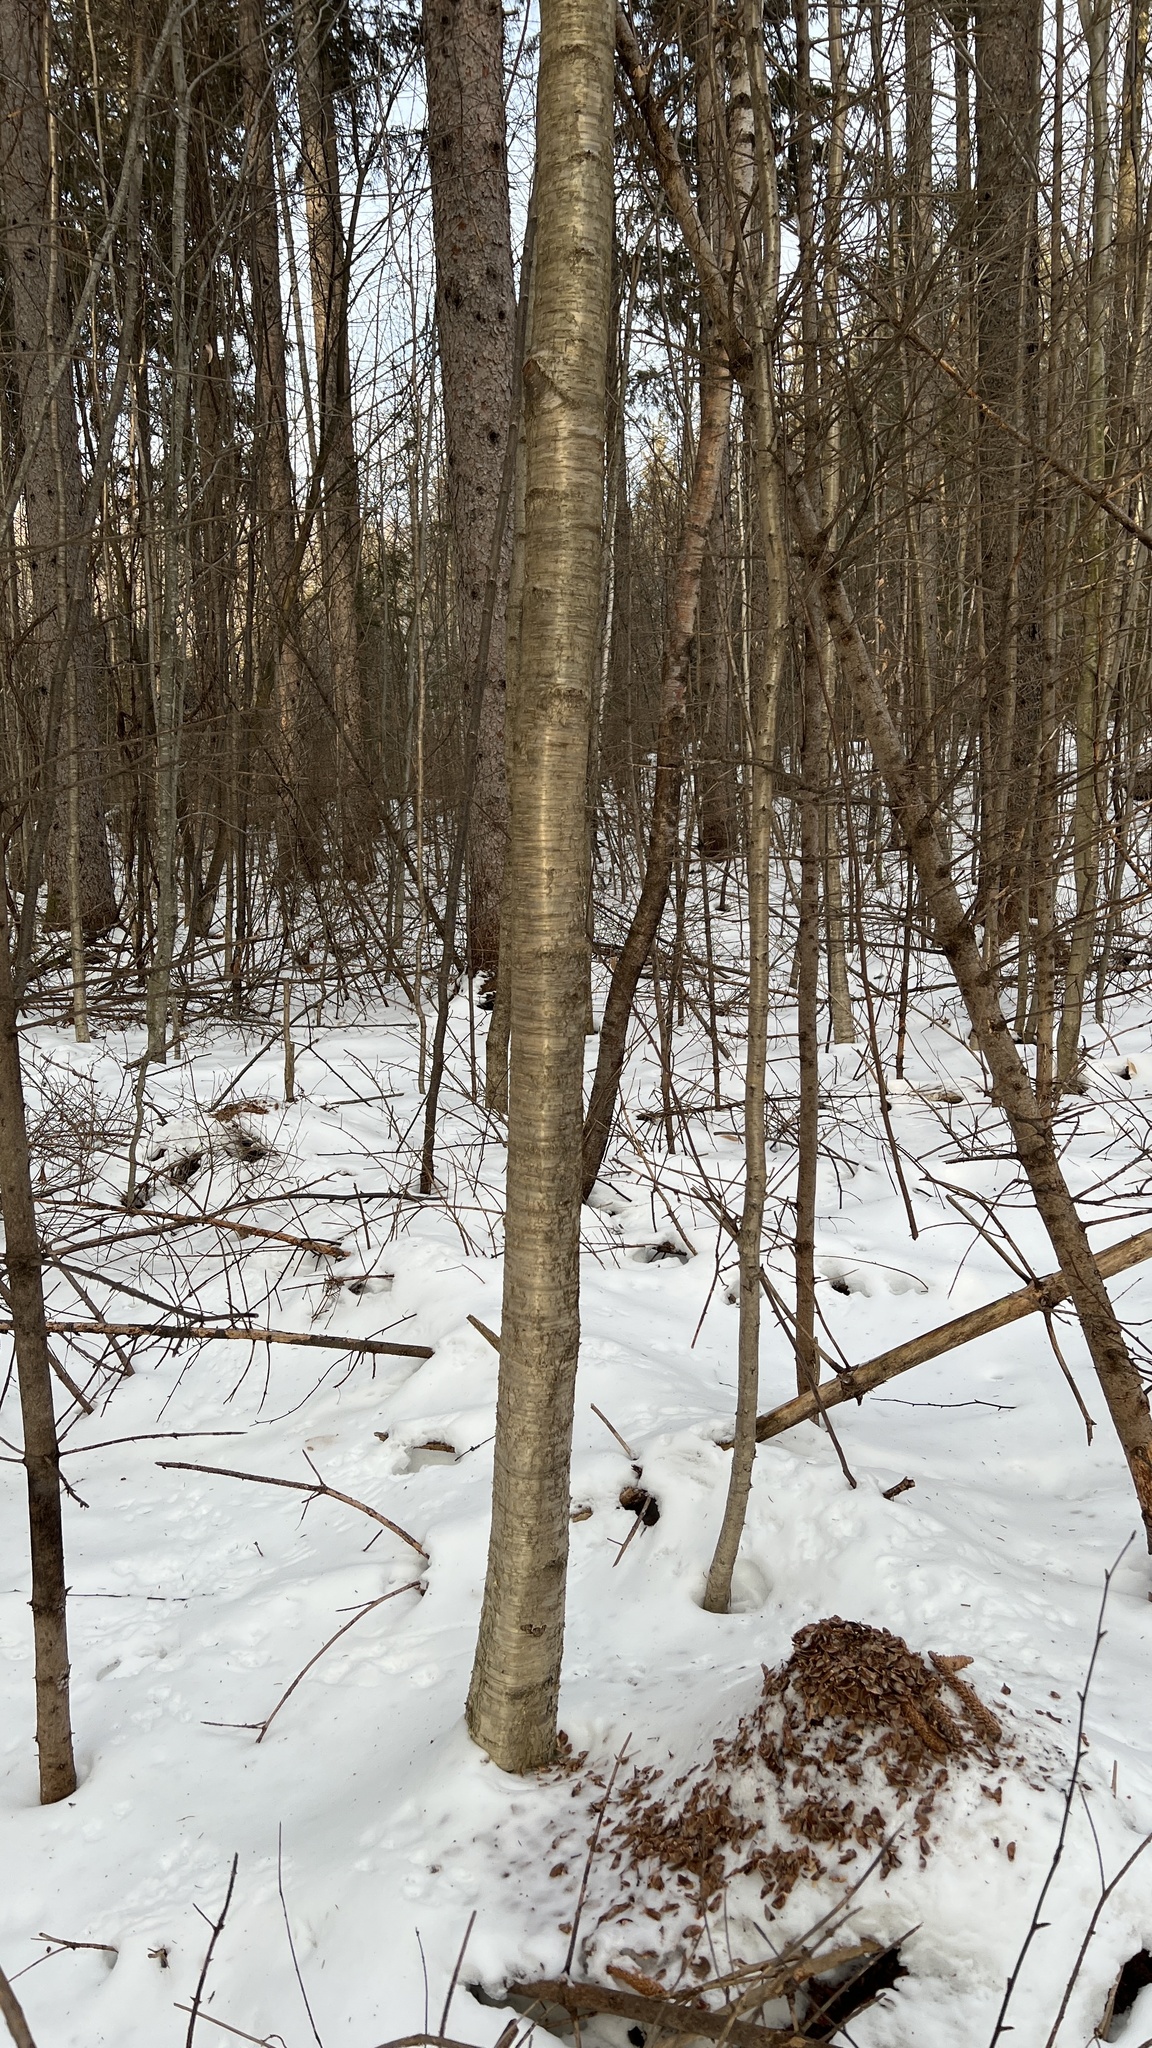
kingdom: Plantae
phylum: Tracheophyta
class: Magnoliopsida
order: Fagales
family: Betulaceae
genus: Betula
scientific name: Betula alleghaniensis
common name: Yellow birch
